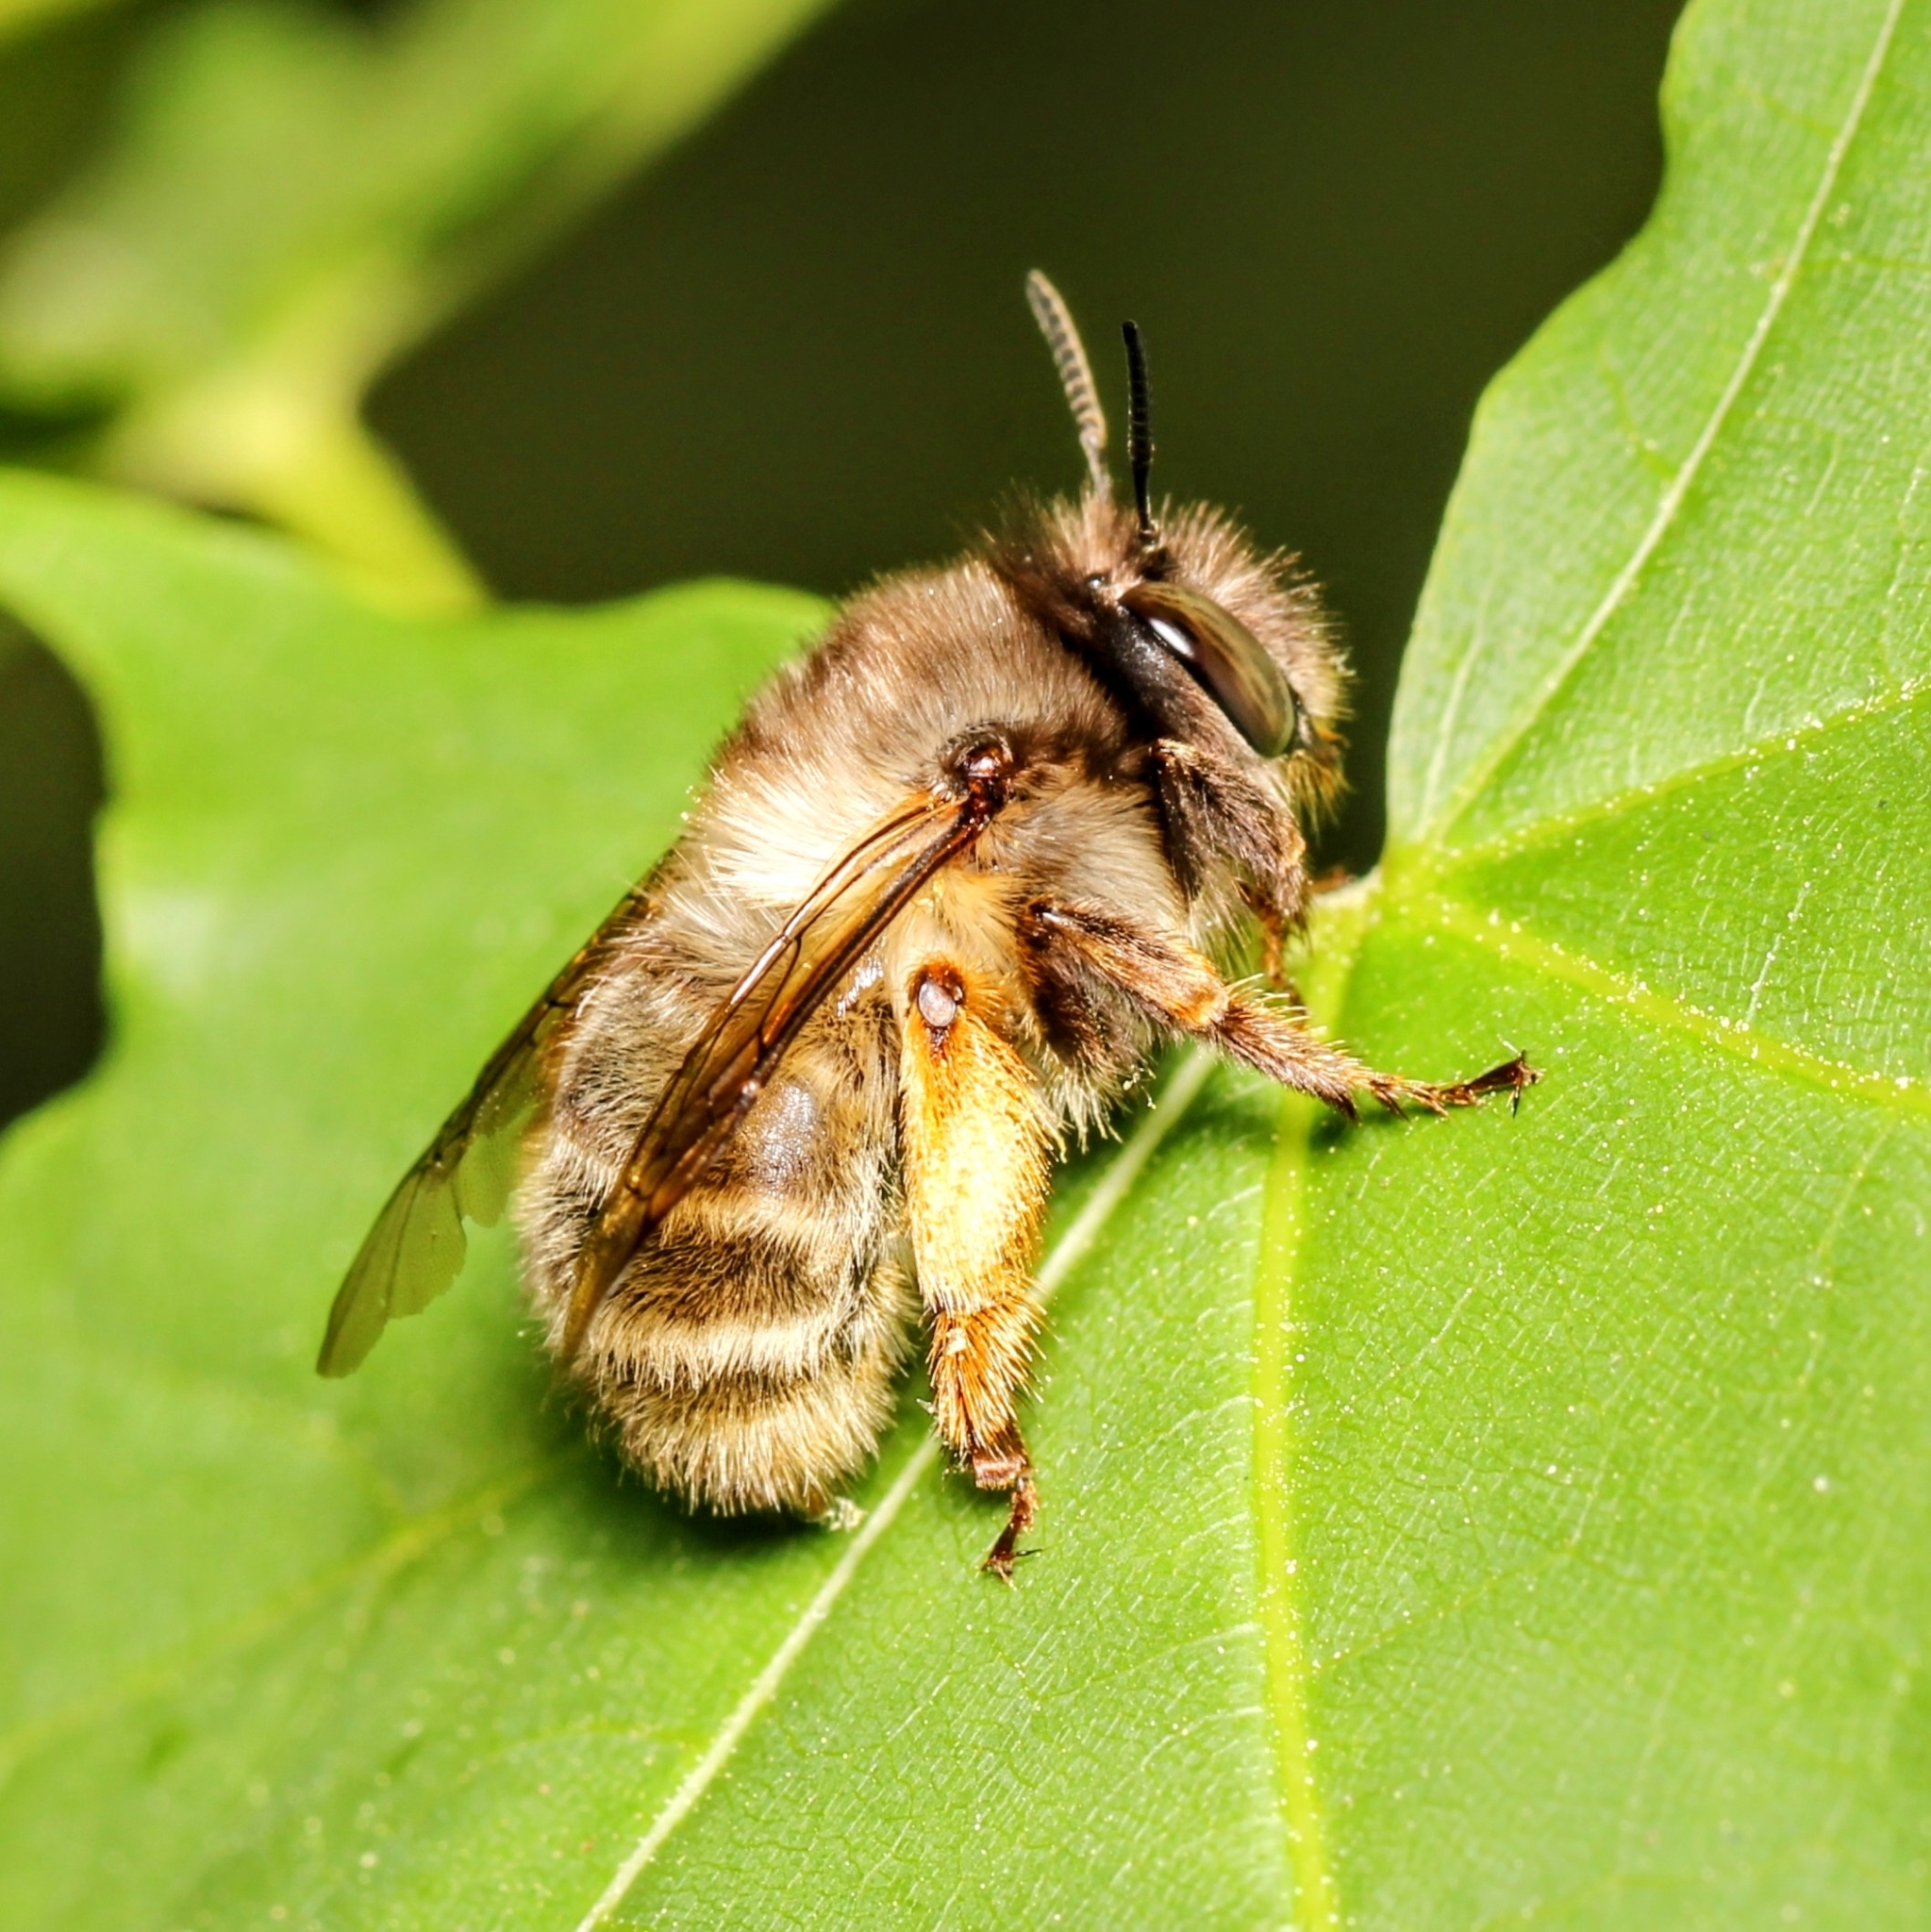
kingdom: Animalia
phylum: Arthropoda
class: Insecta
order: Hymenoptera
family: Apidae
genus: Anthophora
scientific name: Anthophora villosula
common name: Asian shaggy digger
